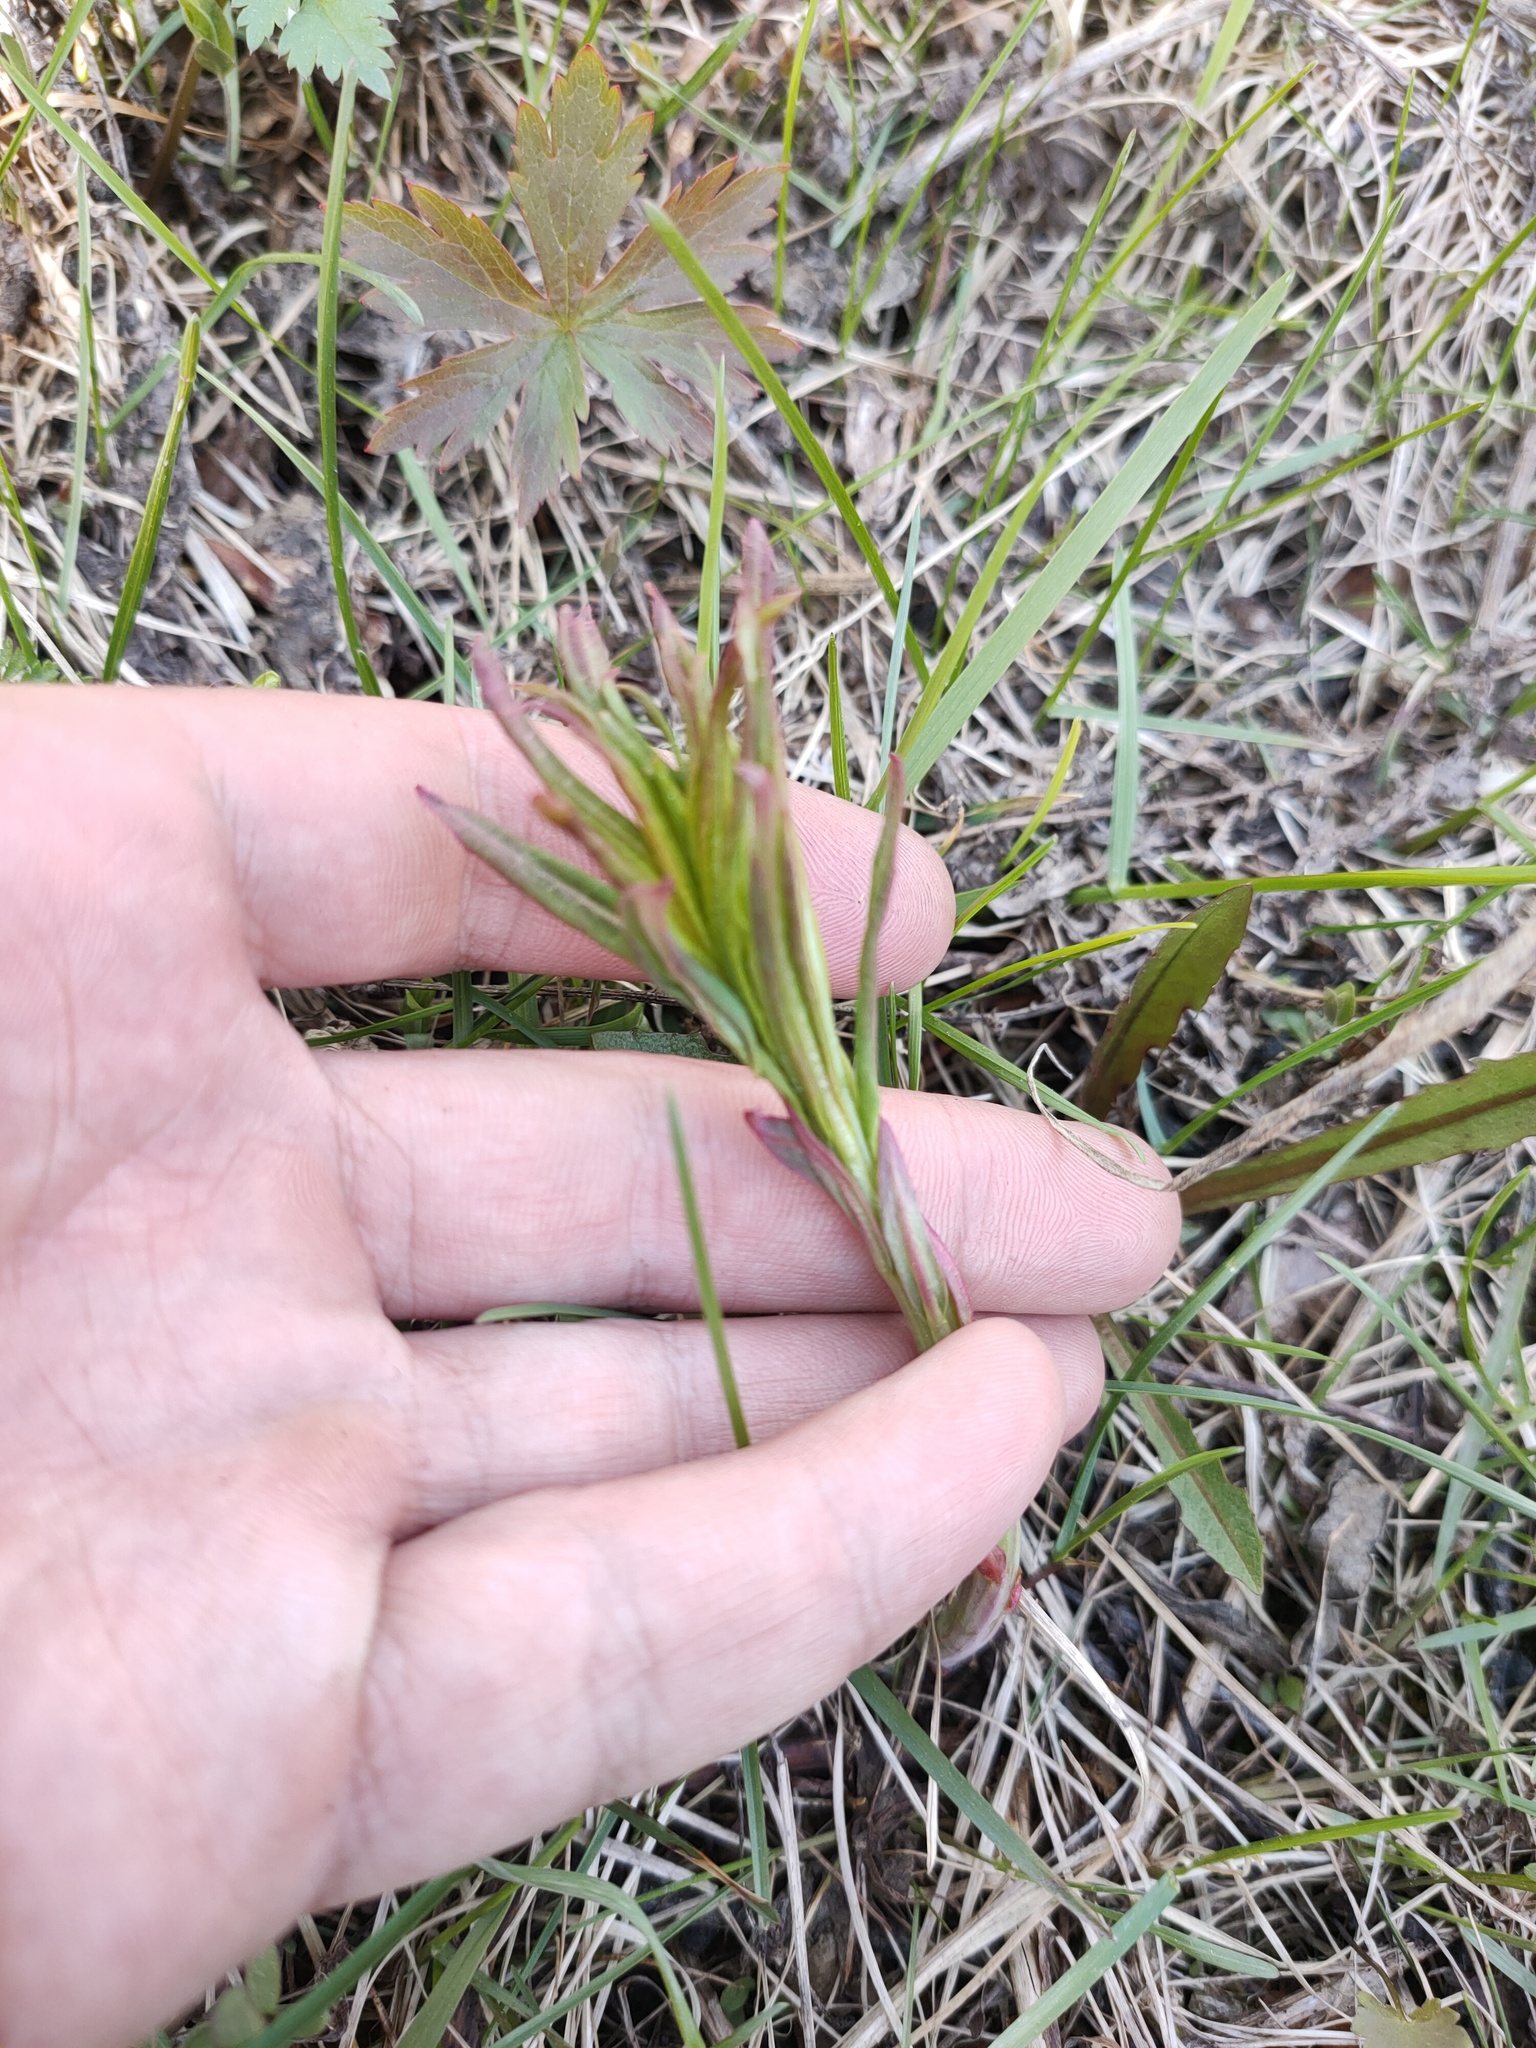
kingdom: Plantae
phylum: Tracheophyta
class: Magnoliopsida
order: Myrtales
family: Onagraceae
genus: Chamaenerion
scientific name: Chamaenerion angustifolium
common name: Fireweed
